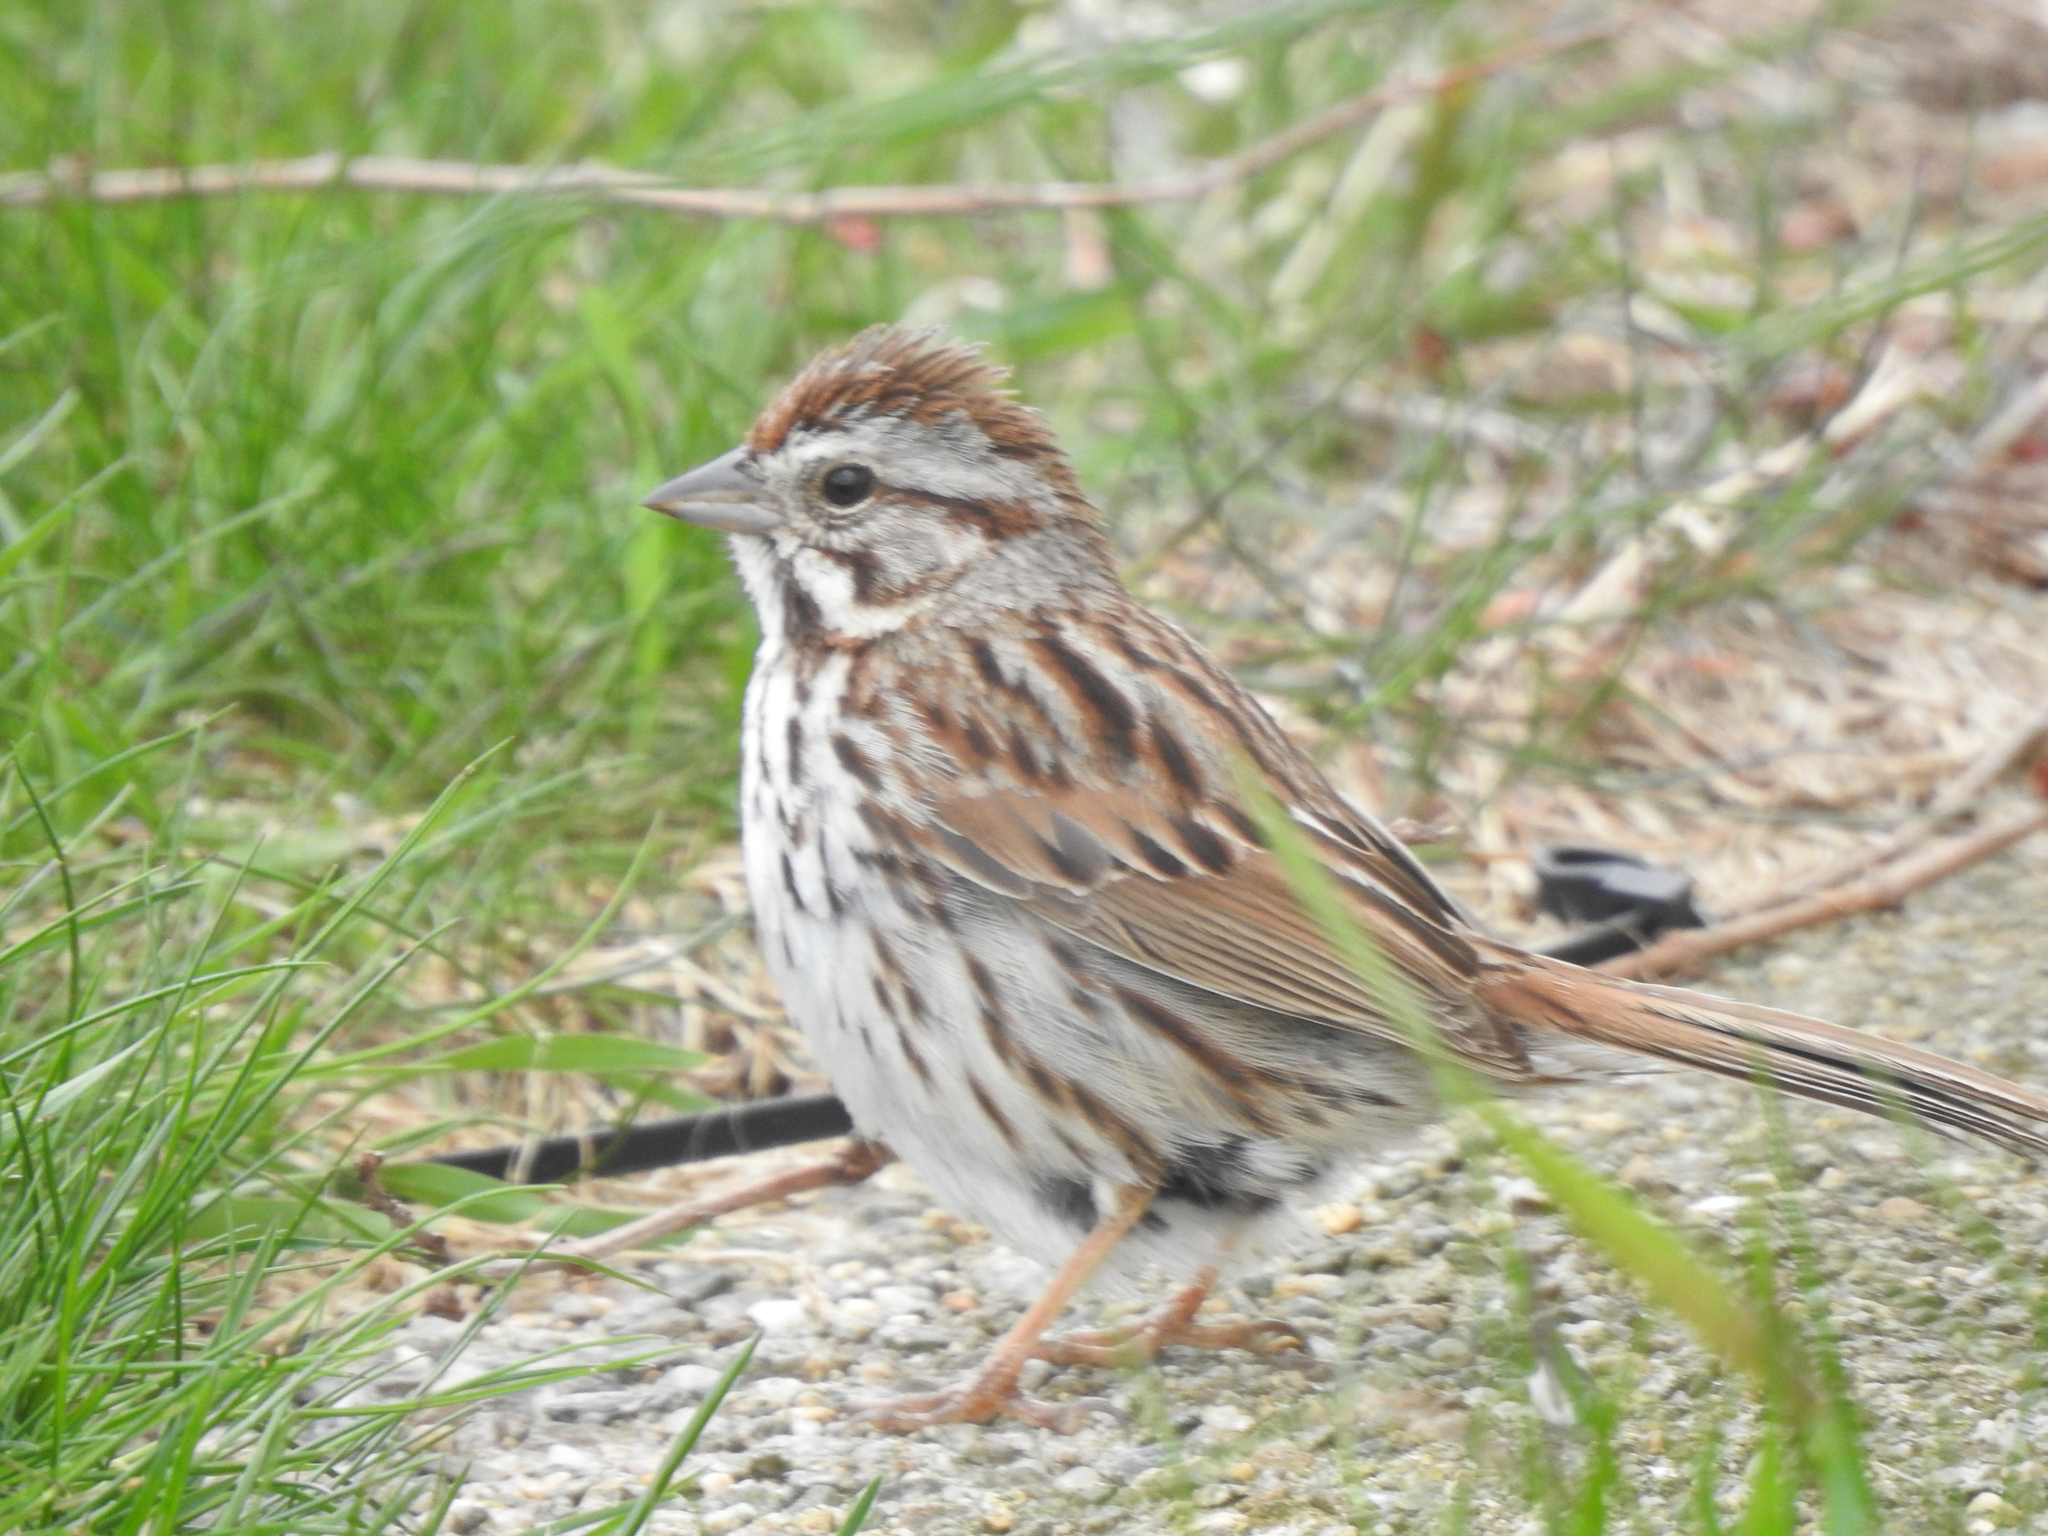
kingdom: Animalia
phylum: Chordata
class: Aves
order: Passeriformes
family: Passerellidae
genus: Melospiza
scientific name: Melospiza melodia
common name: Song sparrow
